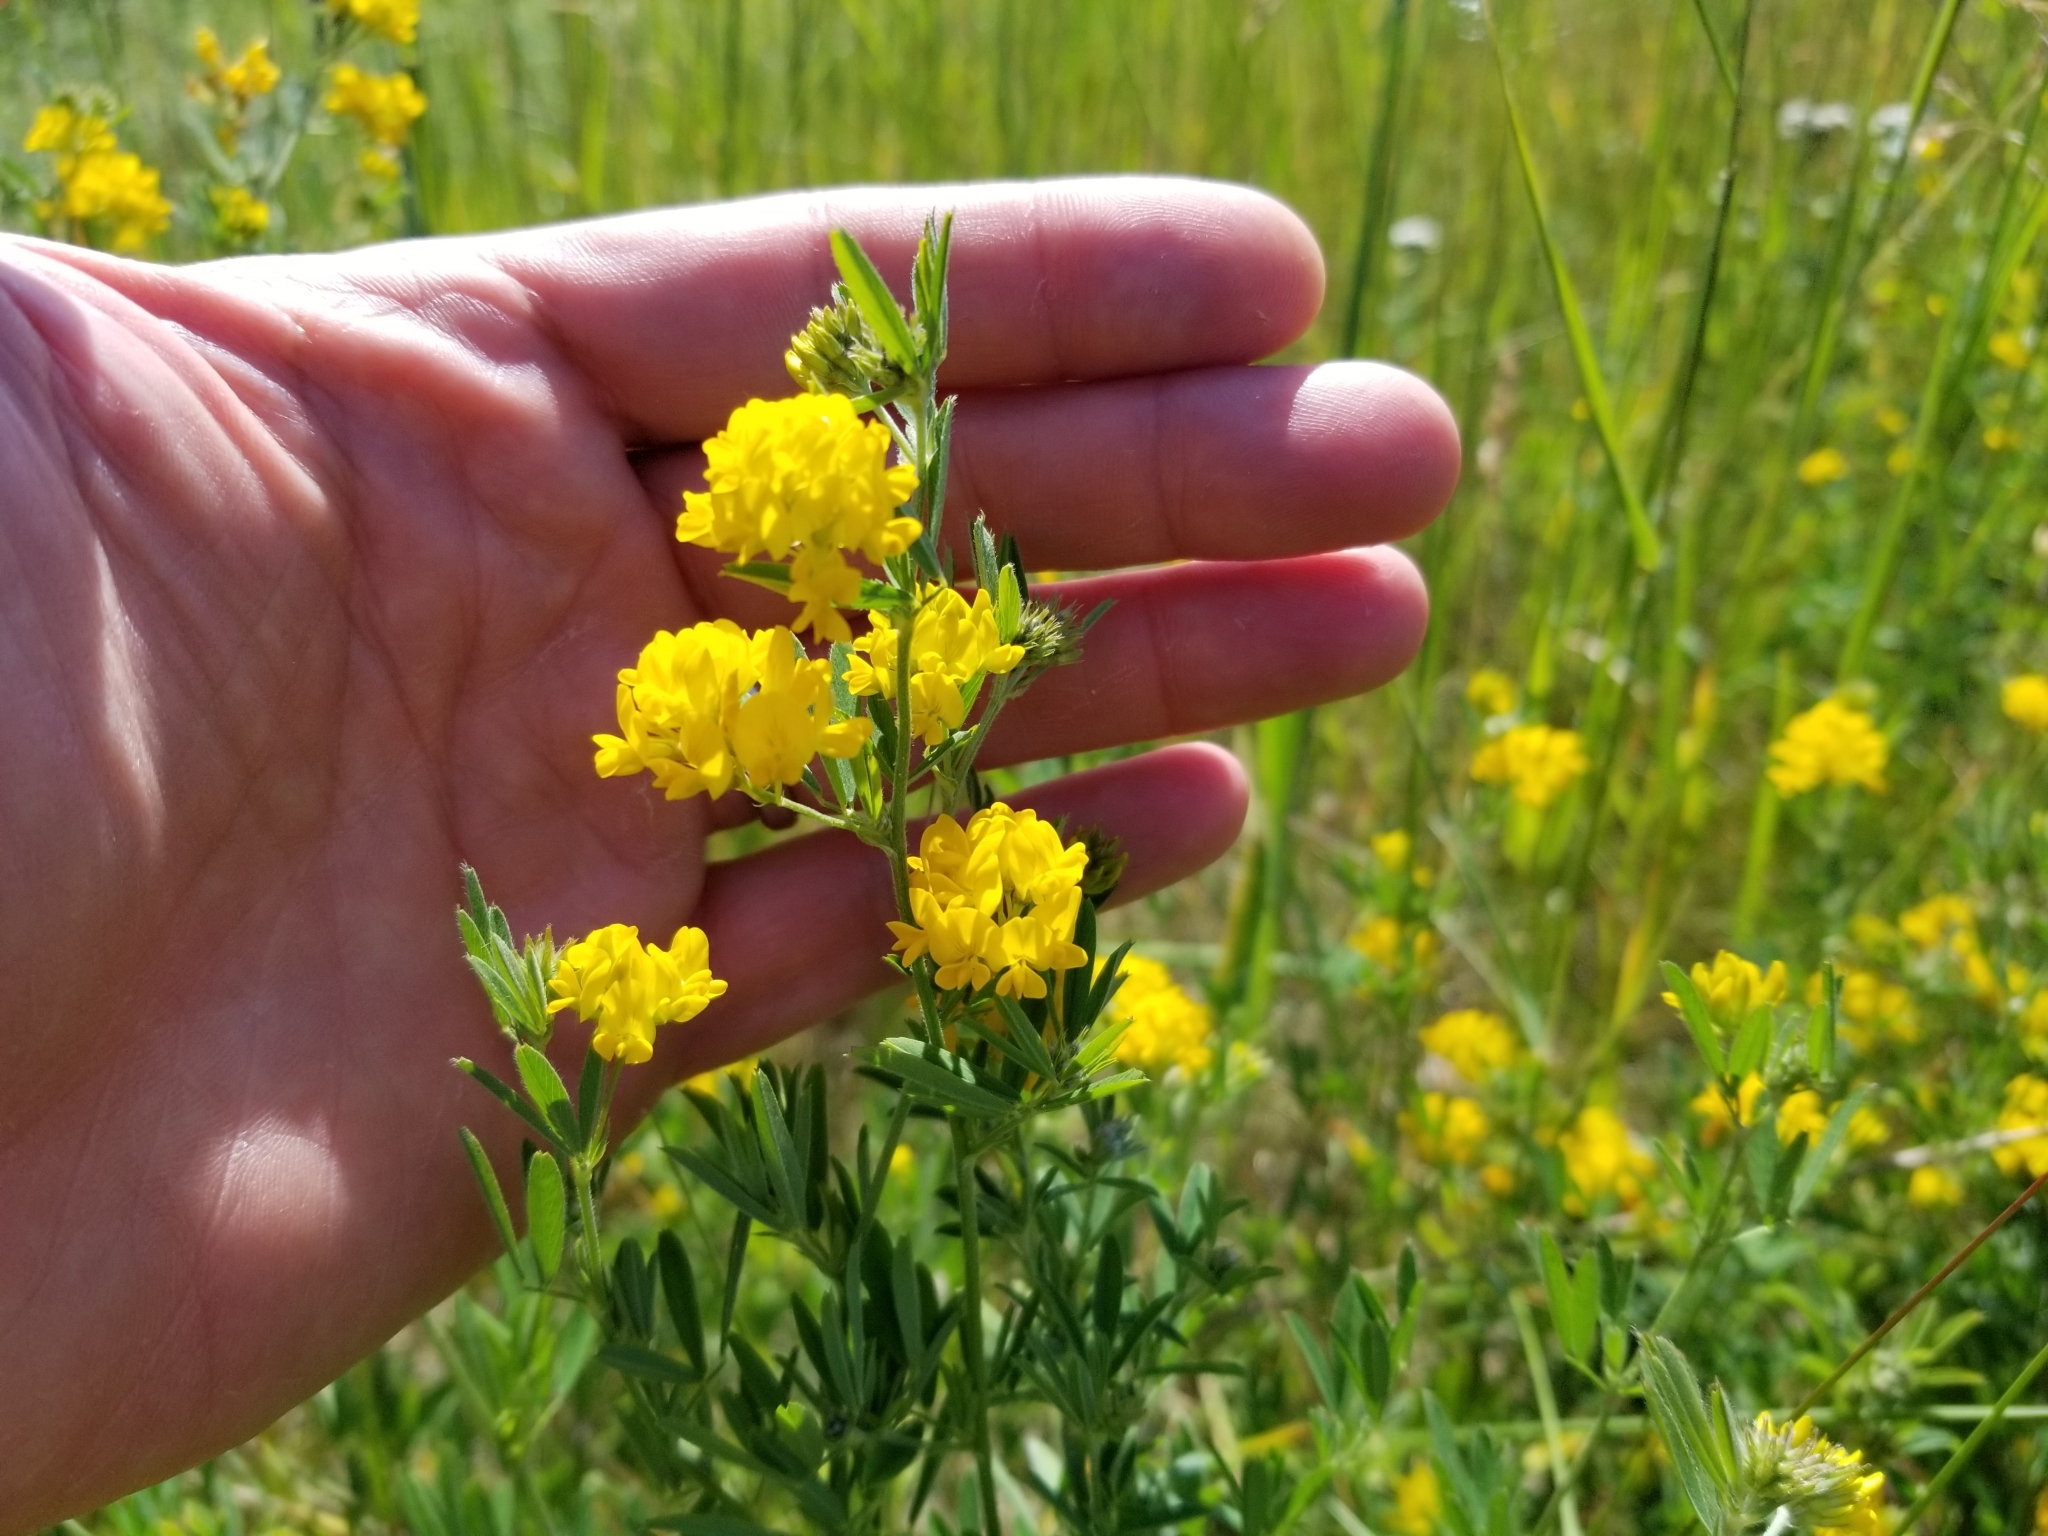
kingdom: Plantae
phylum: Tracheophyta
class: Magnoliopsida
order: Fabales
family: Fabaceae
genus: Medicago
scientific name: Medicago falcata
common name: Sickle medick
